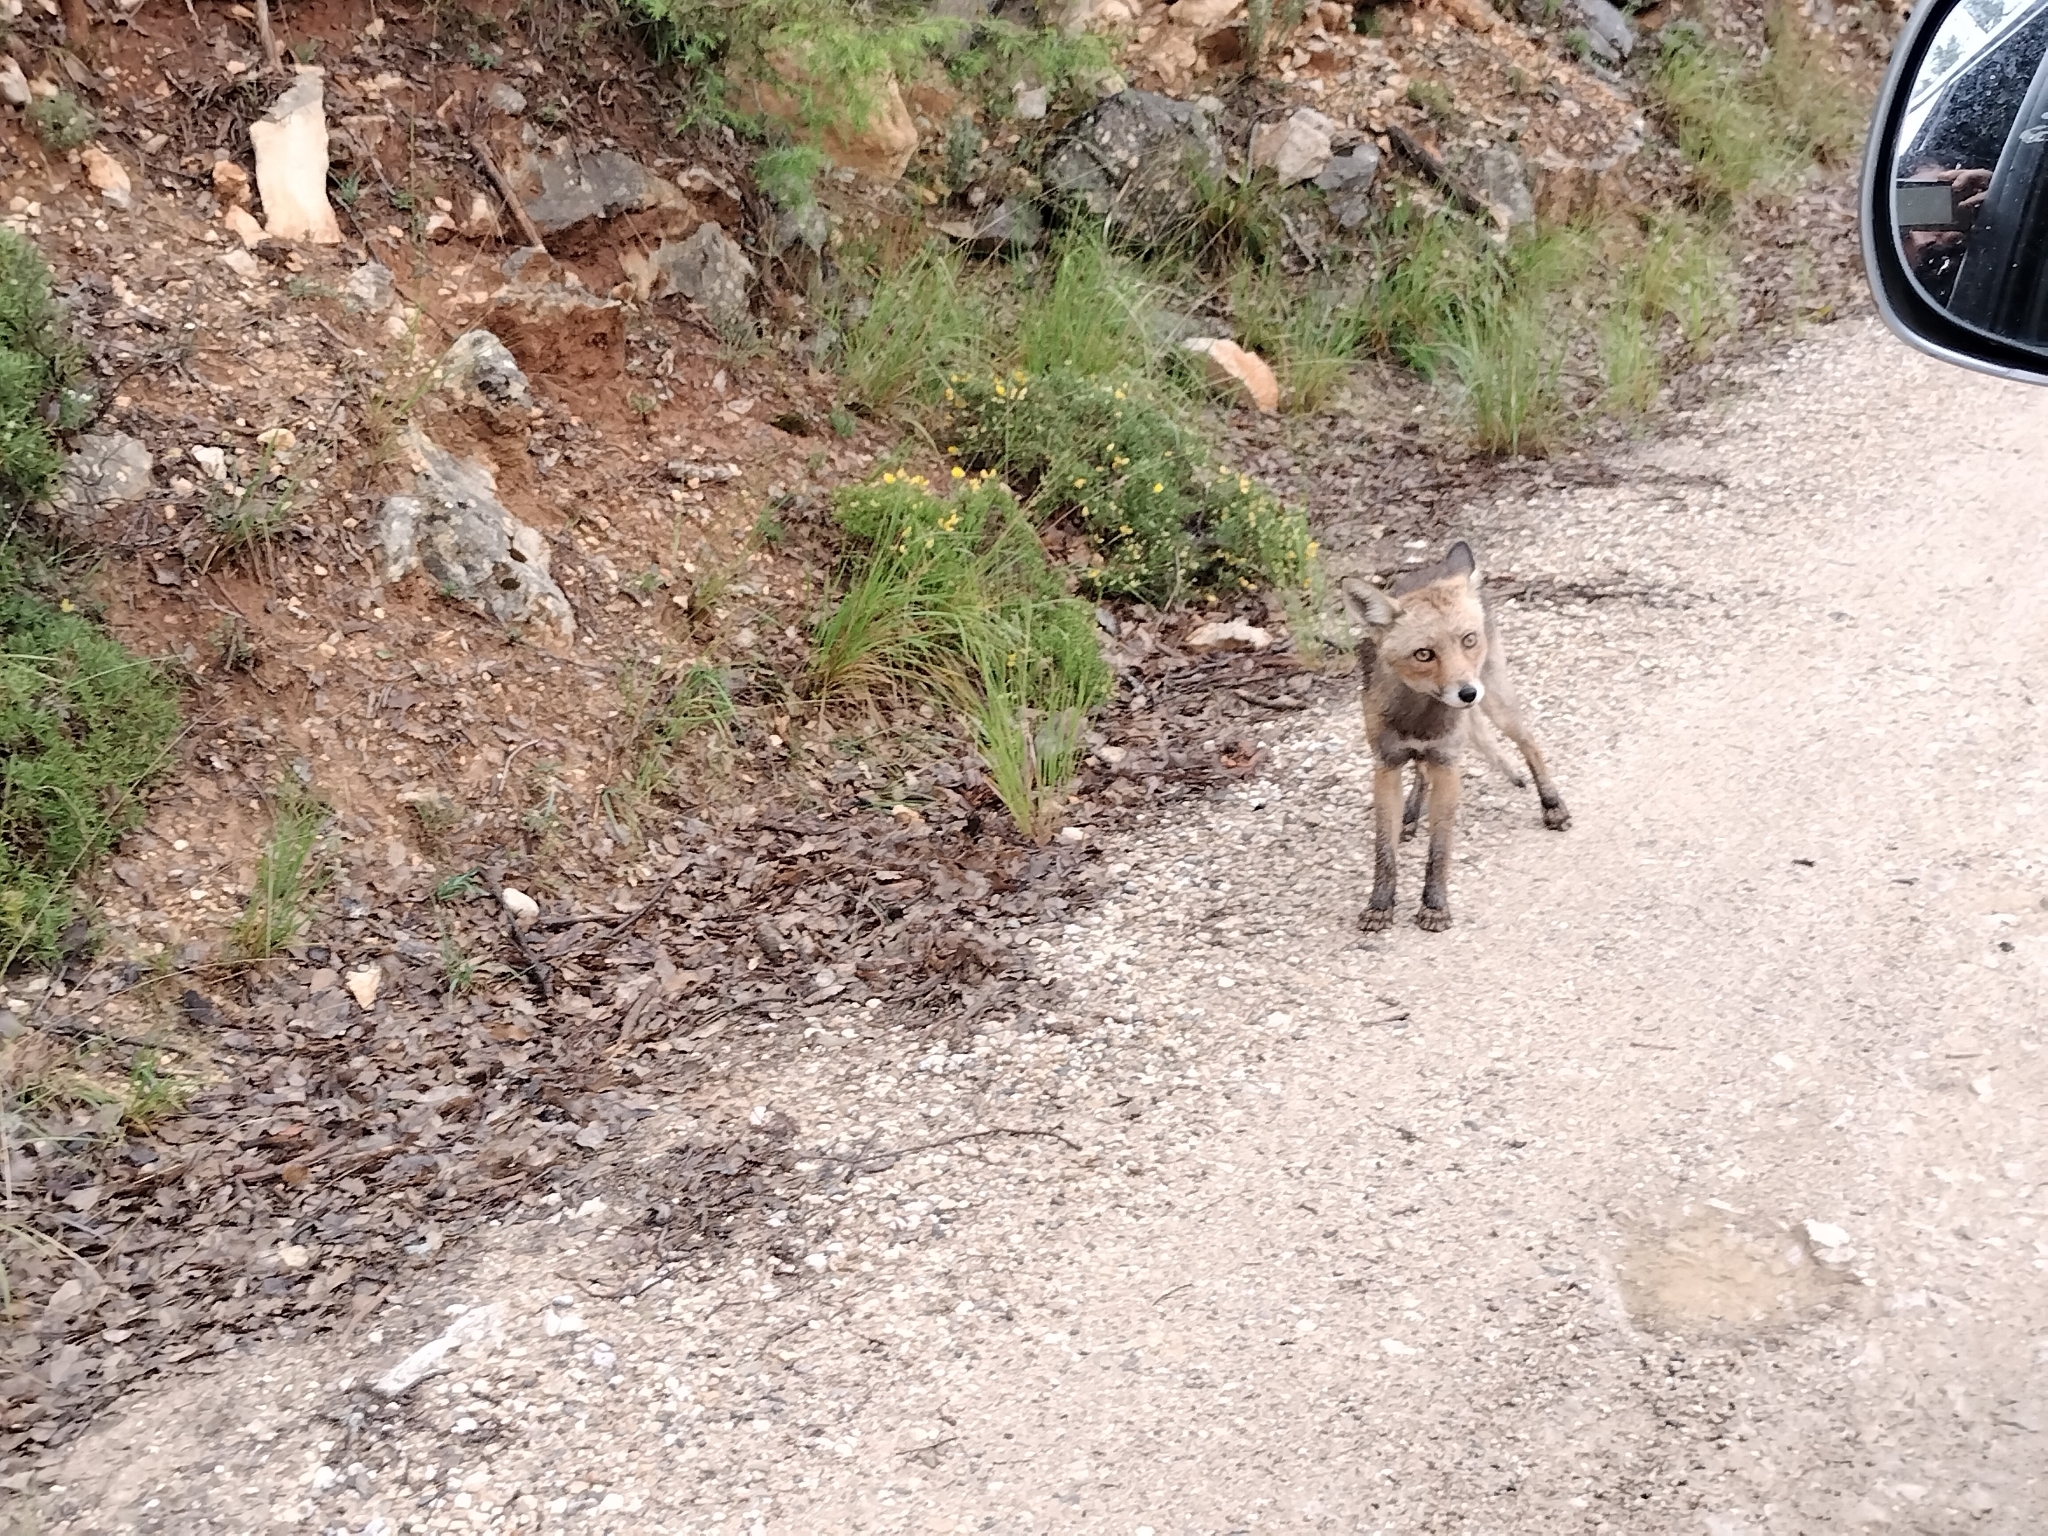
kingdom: Animalia
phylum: Chordata
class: Mammalia
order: Carnivora
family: Canidae
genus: Vulpes
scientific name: Vulpes vulpes
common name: Red fox
